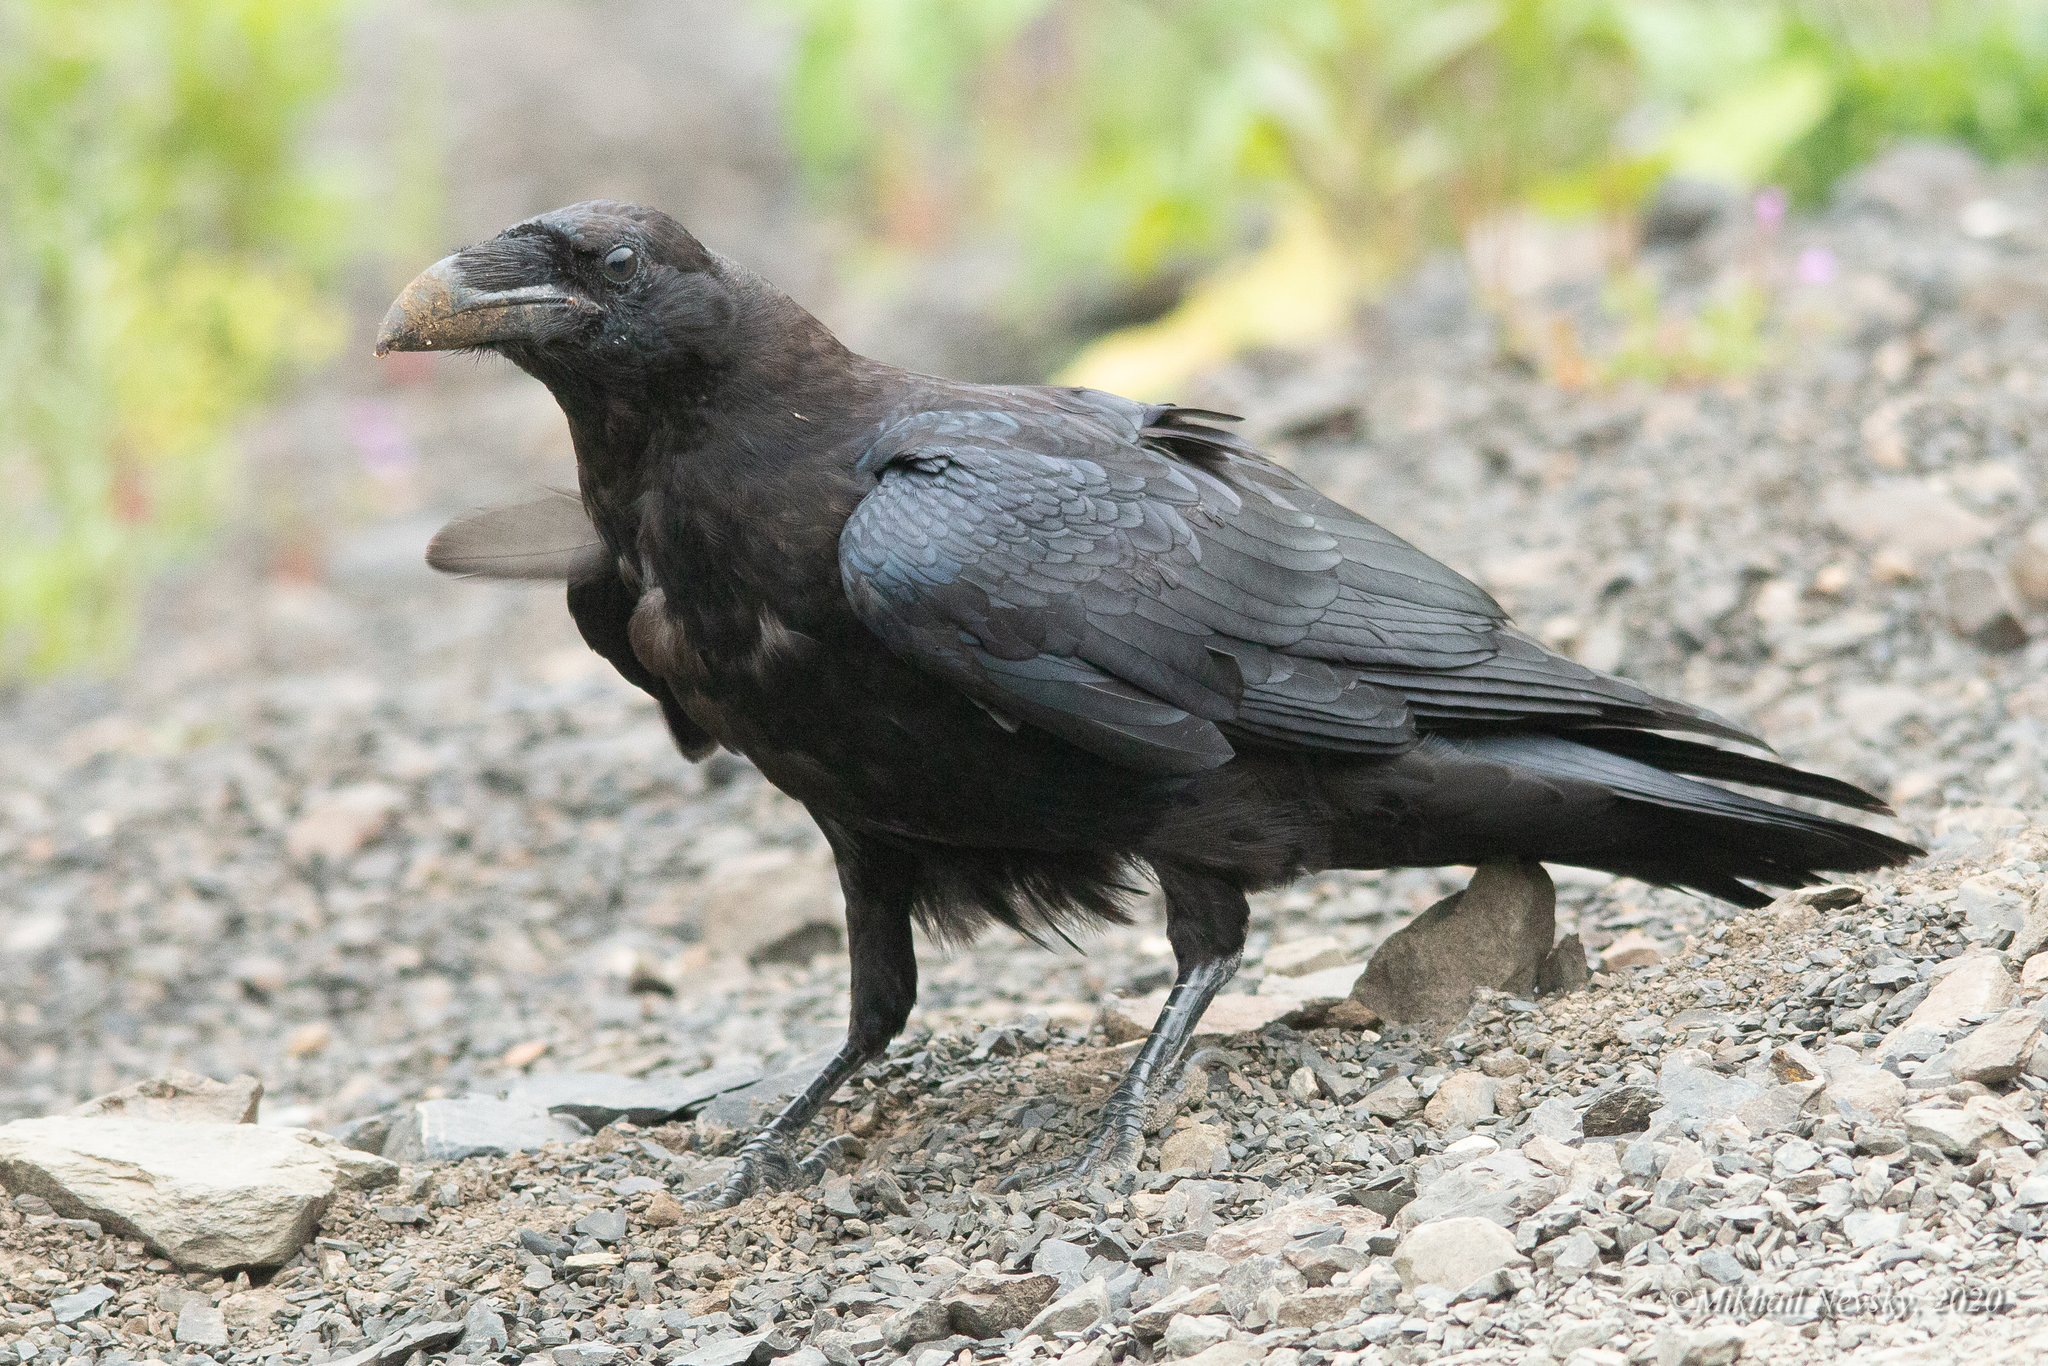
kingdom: Animalia
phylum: Chordata
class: Aves
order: Passeriformes
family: Corvidae
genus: Corvus
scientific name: Corvus corax
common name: Common raven
